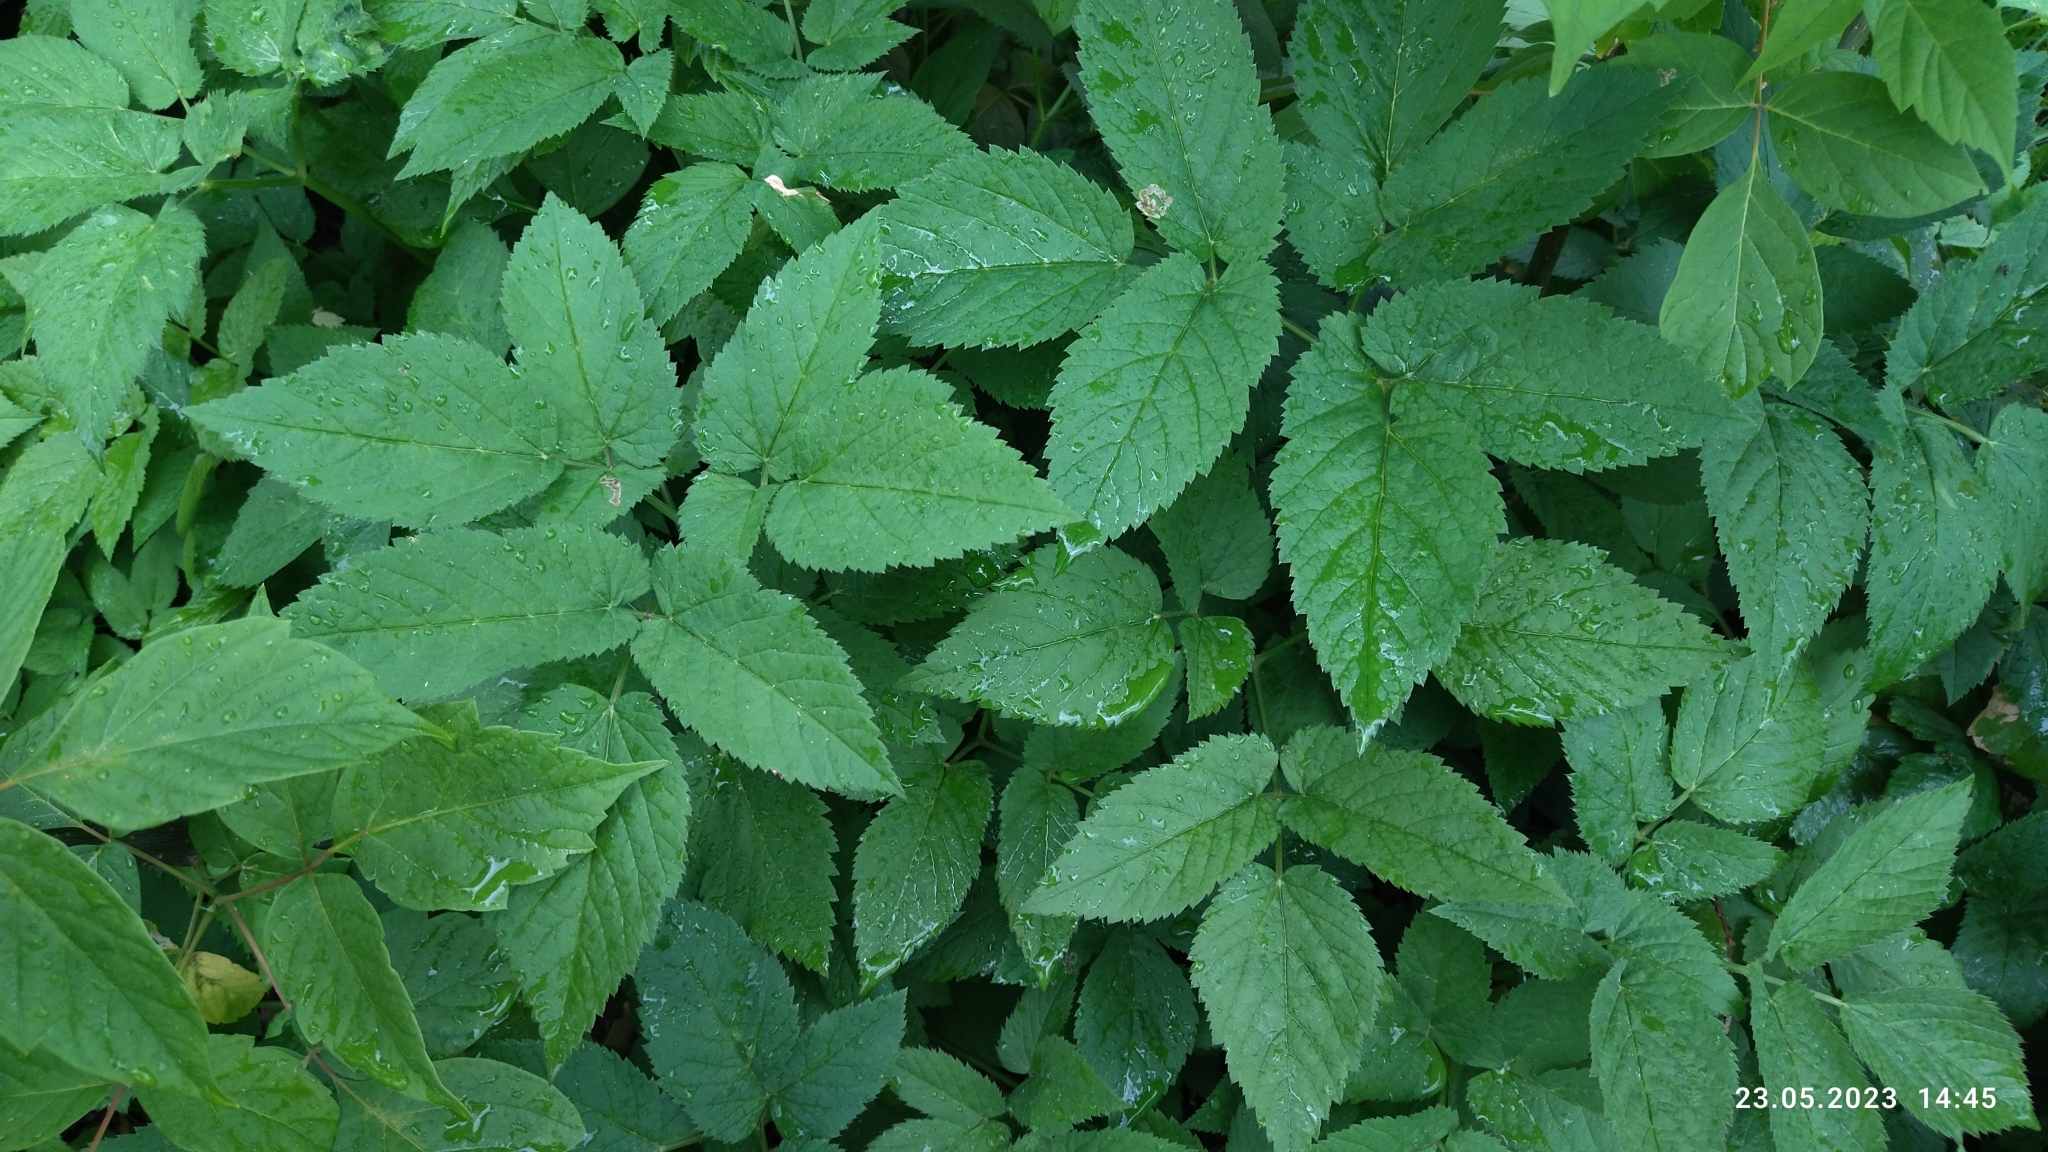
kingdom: Plantae
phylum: Tracheophyta
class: Magnoliopsida
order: Apiales
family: Apiaceae
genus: Aegopodium
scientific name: Aegopodium podagraria
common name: Ground-elder
